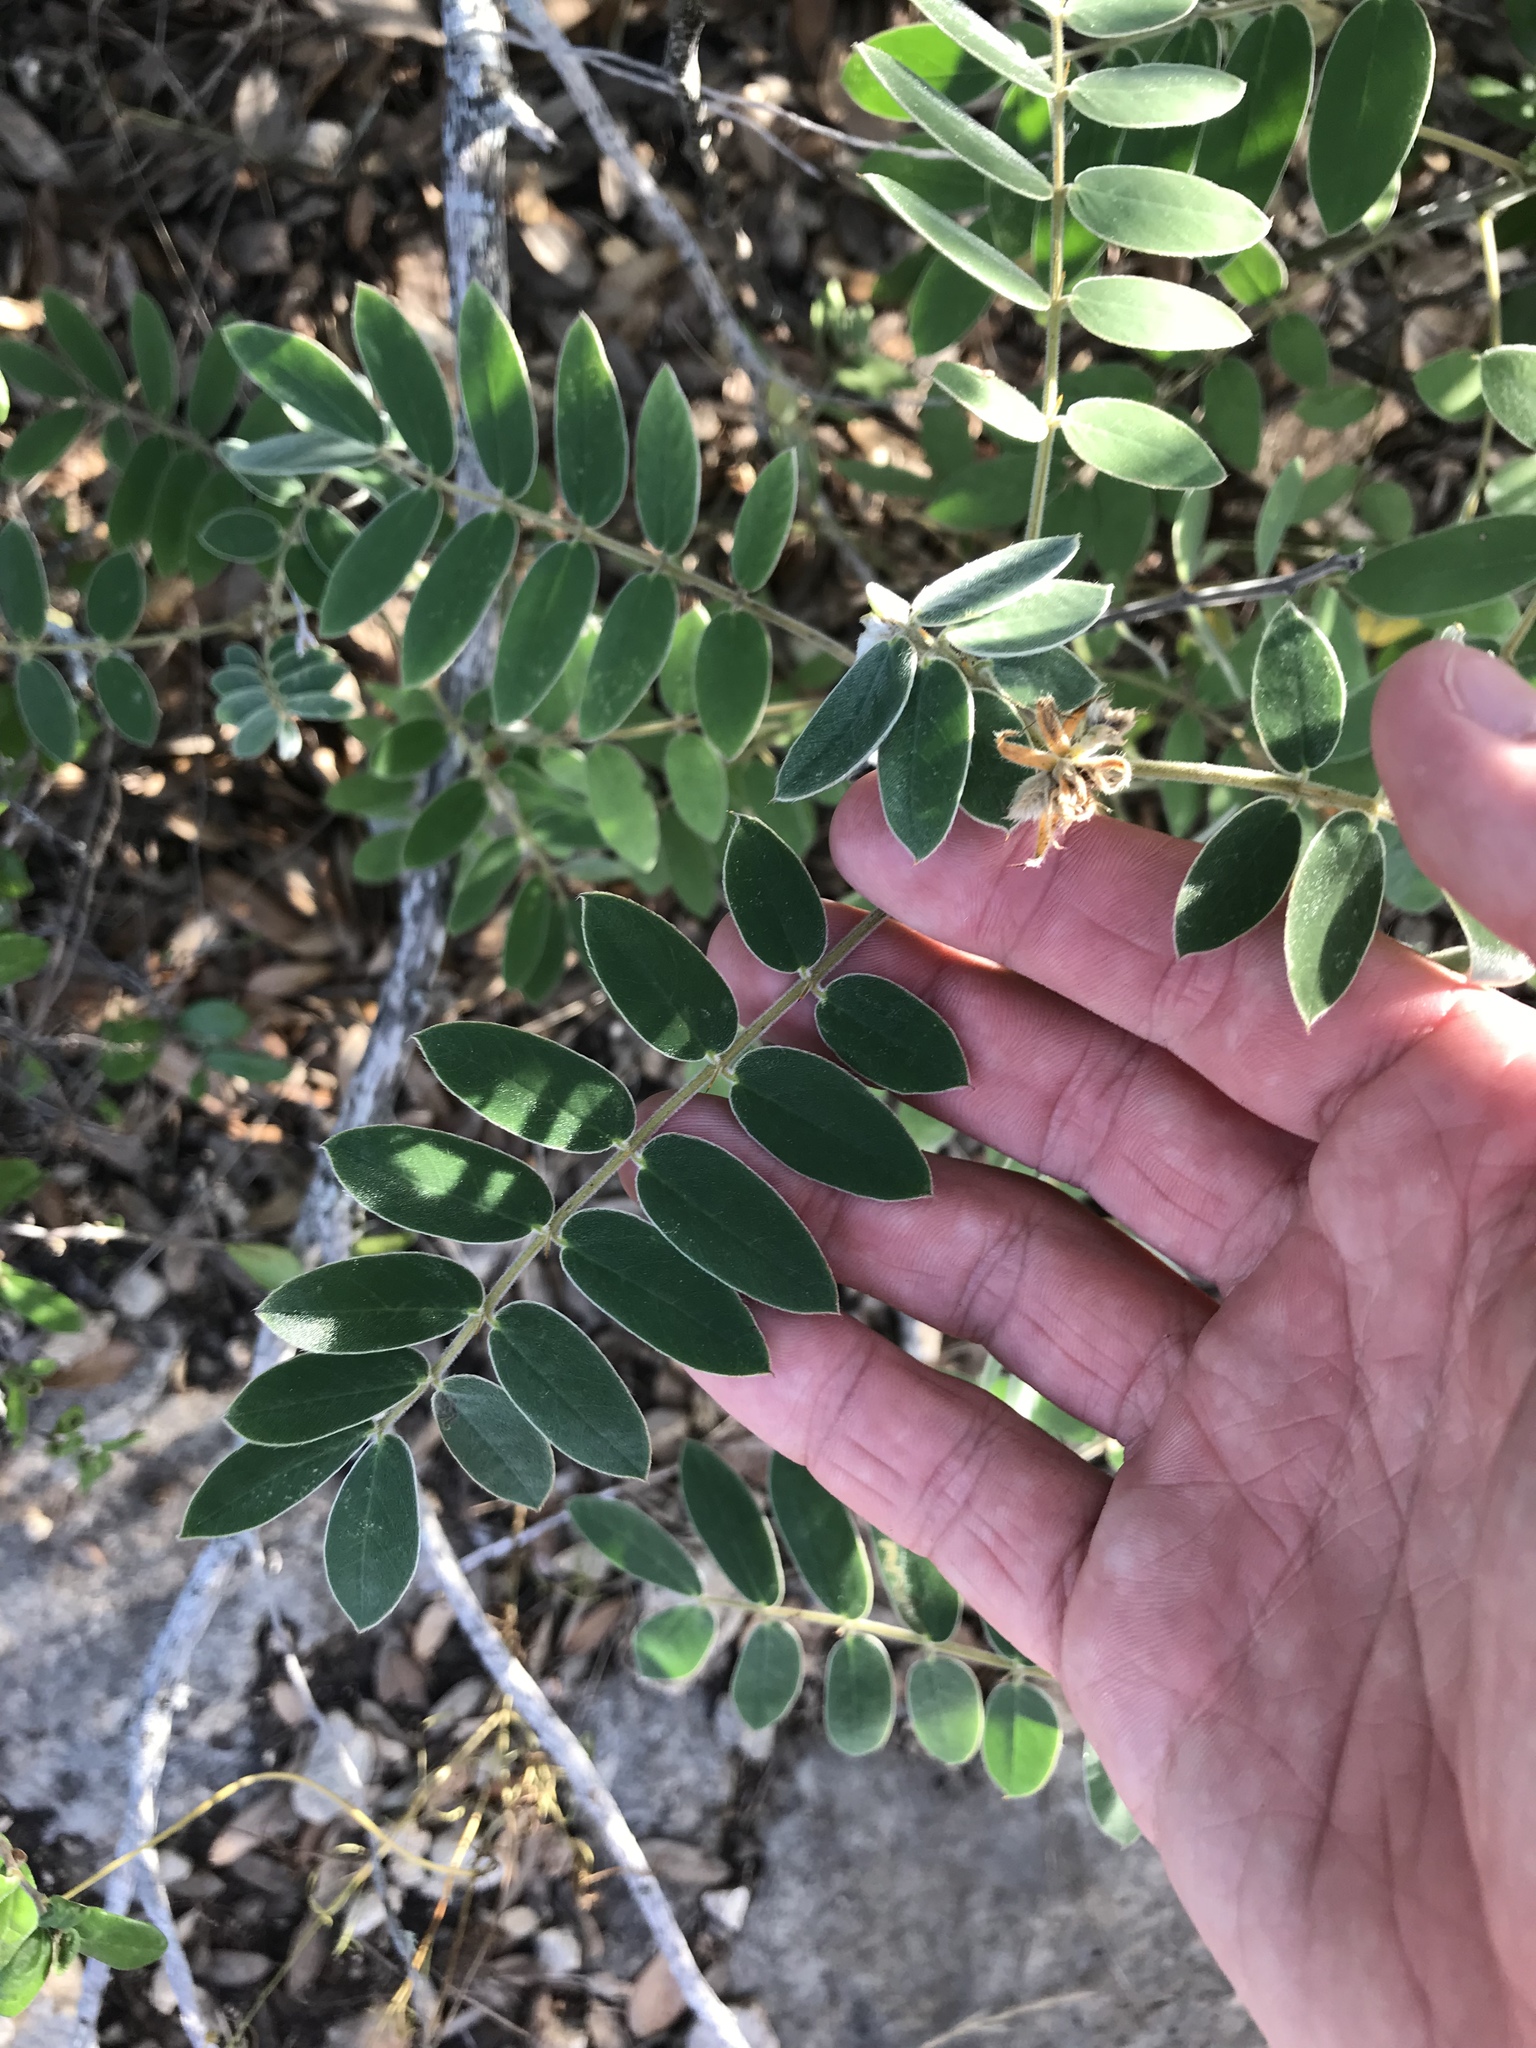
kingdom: Plantae
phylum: Tracheophyta
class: Magnoliopsida
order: Fabales
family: Fabaceae
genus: Senna
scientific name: Senna lindheimeriana
